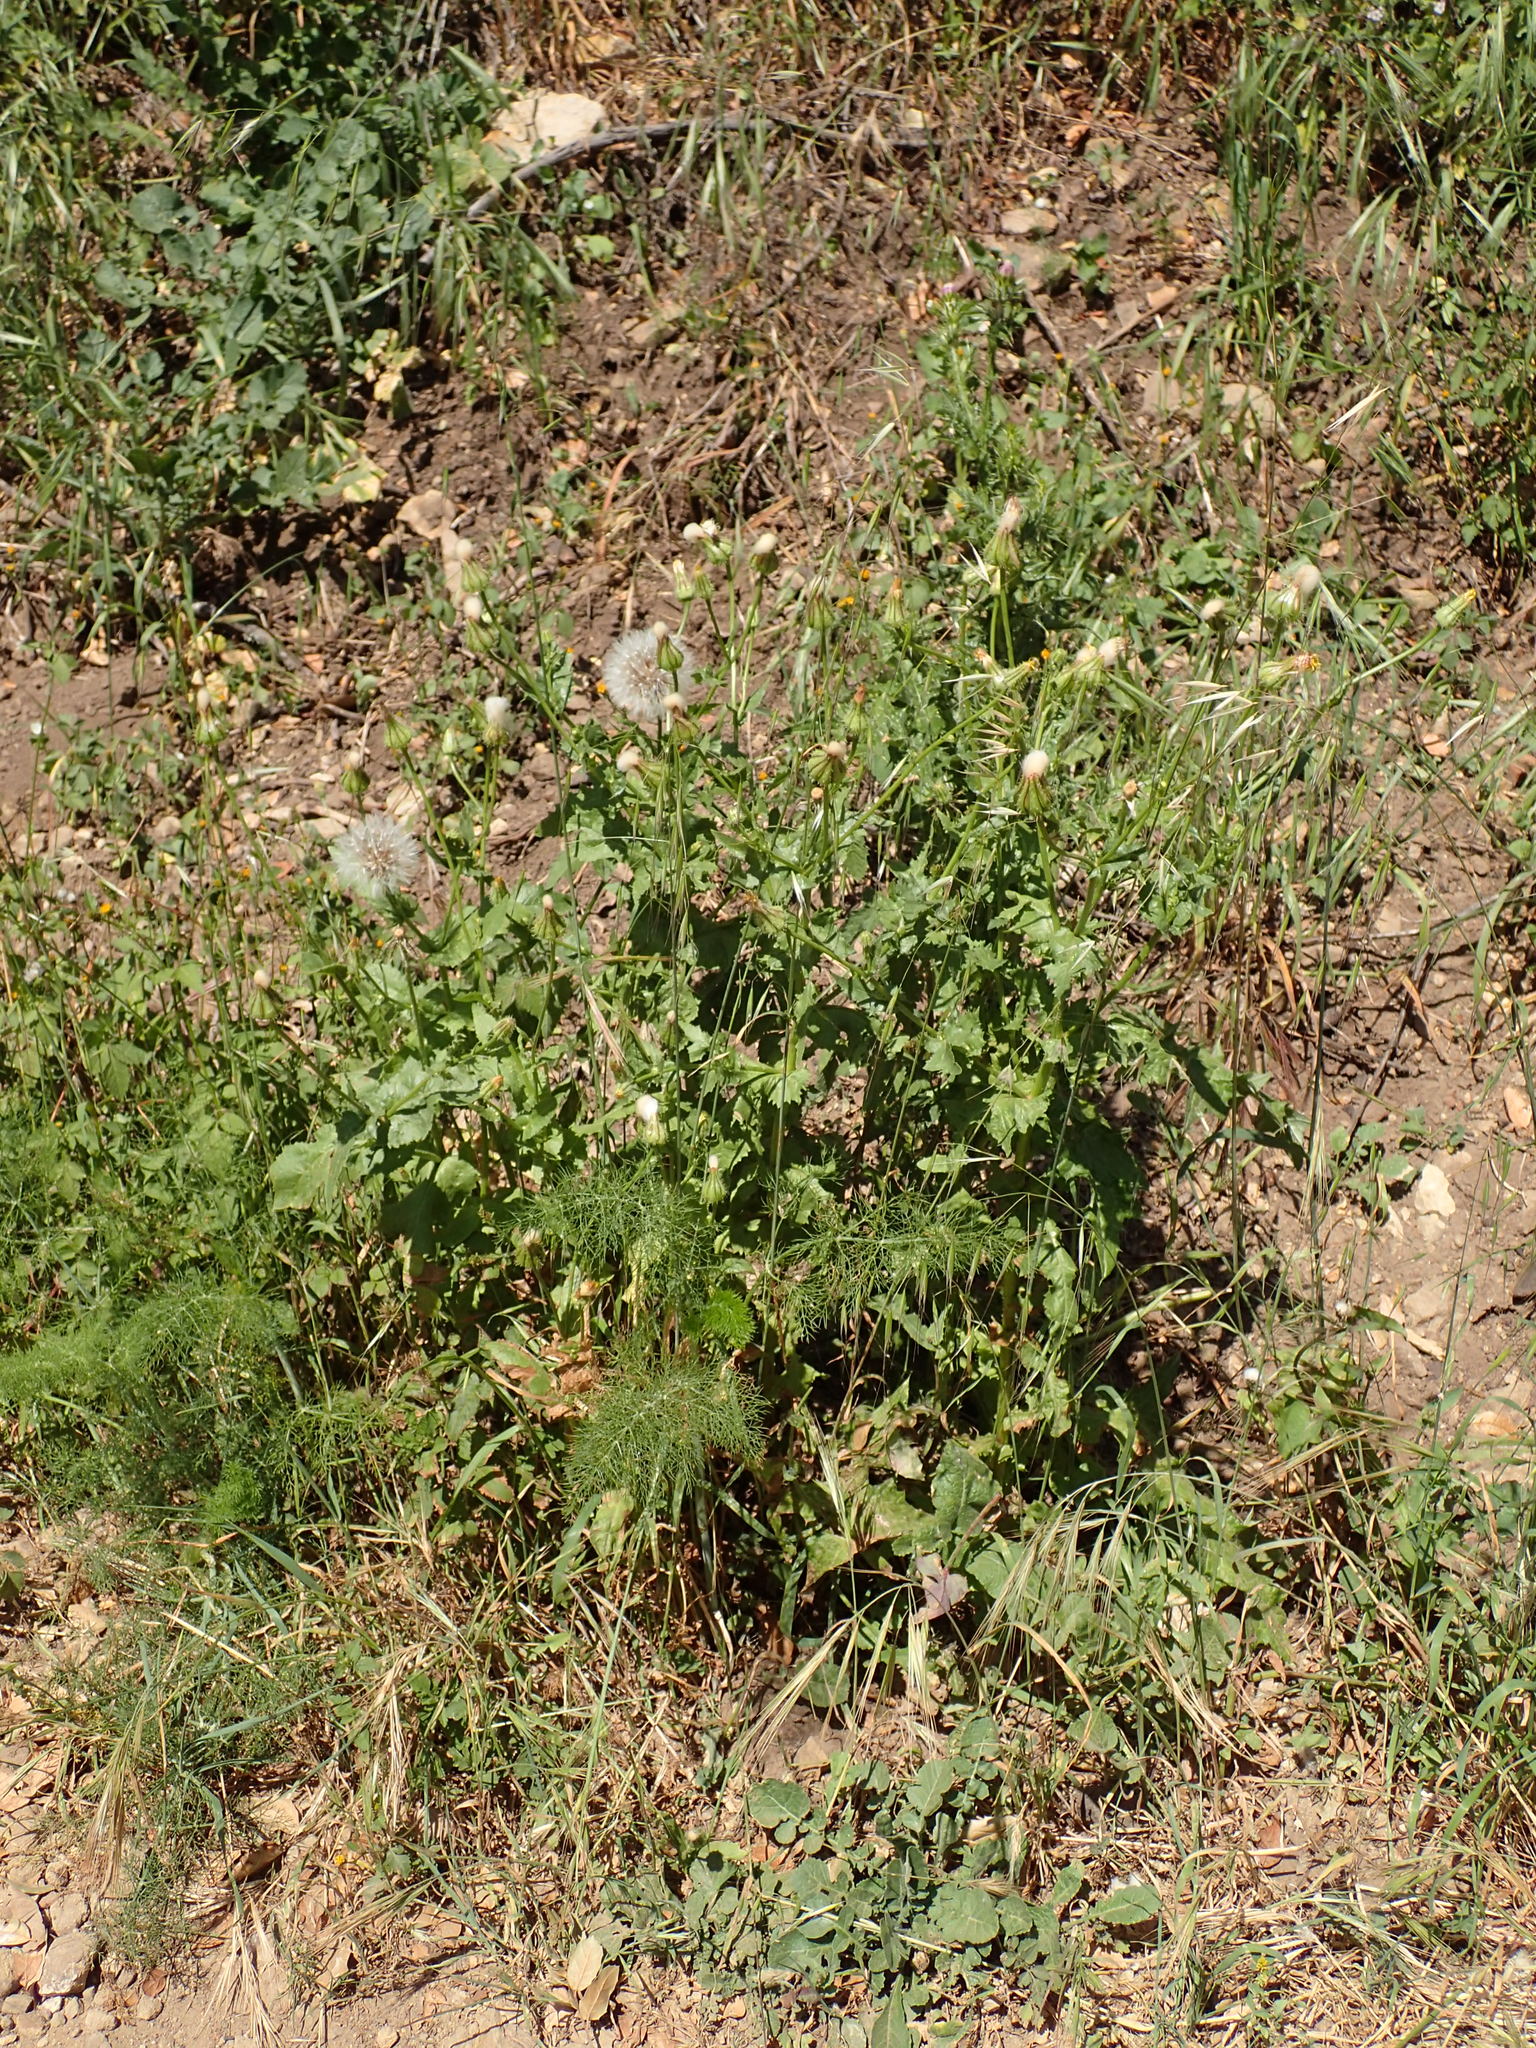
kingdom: Plantae
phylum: Tracheophyta
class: Magnoliopsida
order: Asterales
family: Asteraceae
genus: Urospermum
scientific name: Urospermum picroides
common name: False hawkbit
